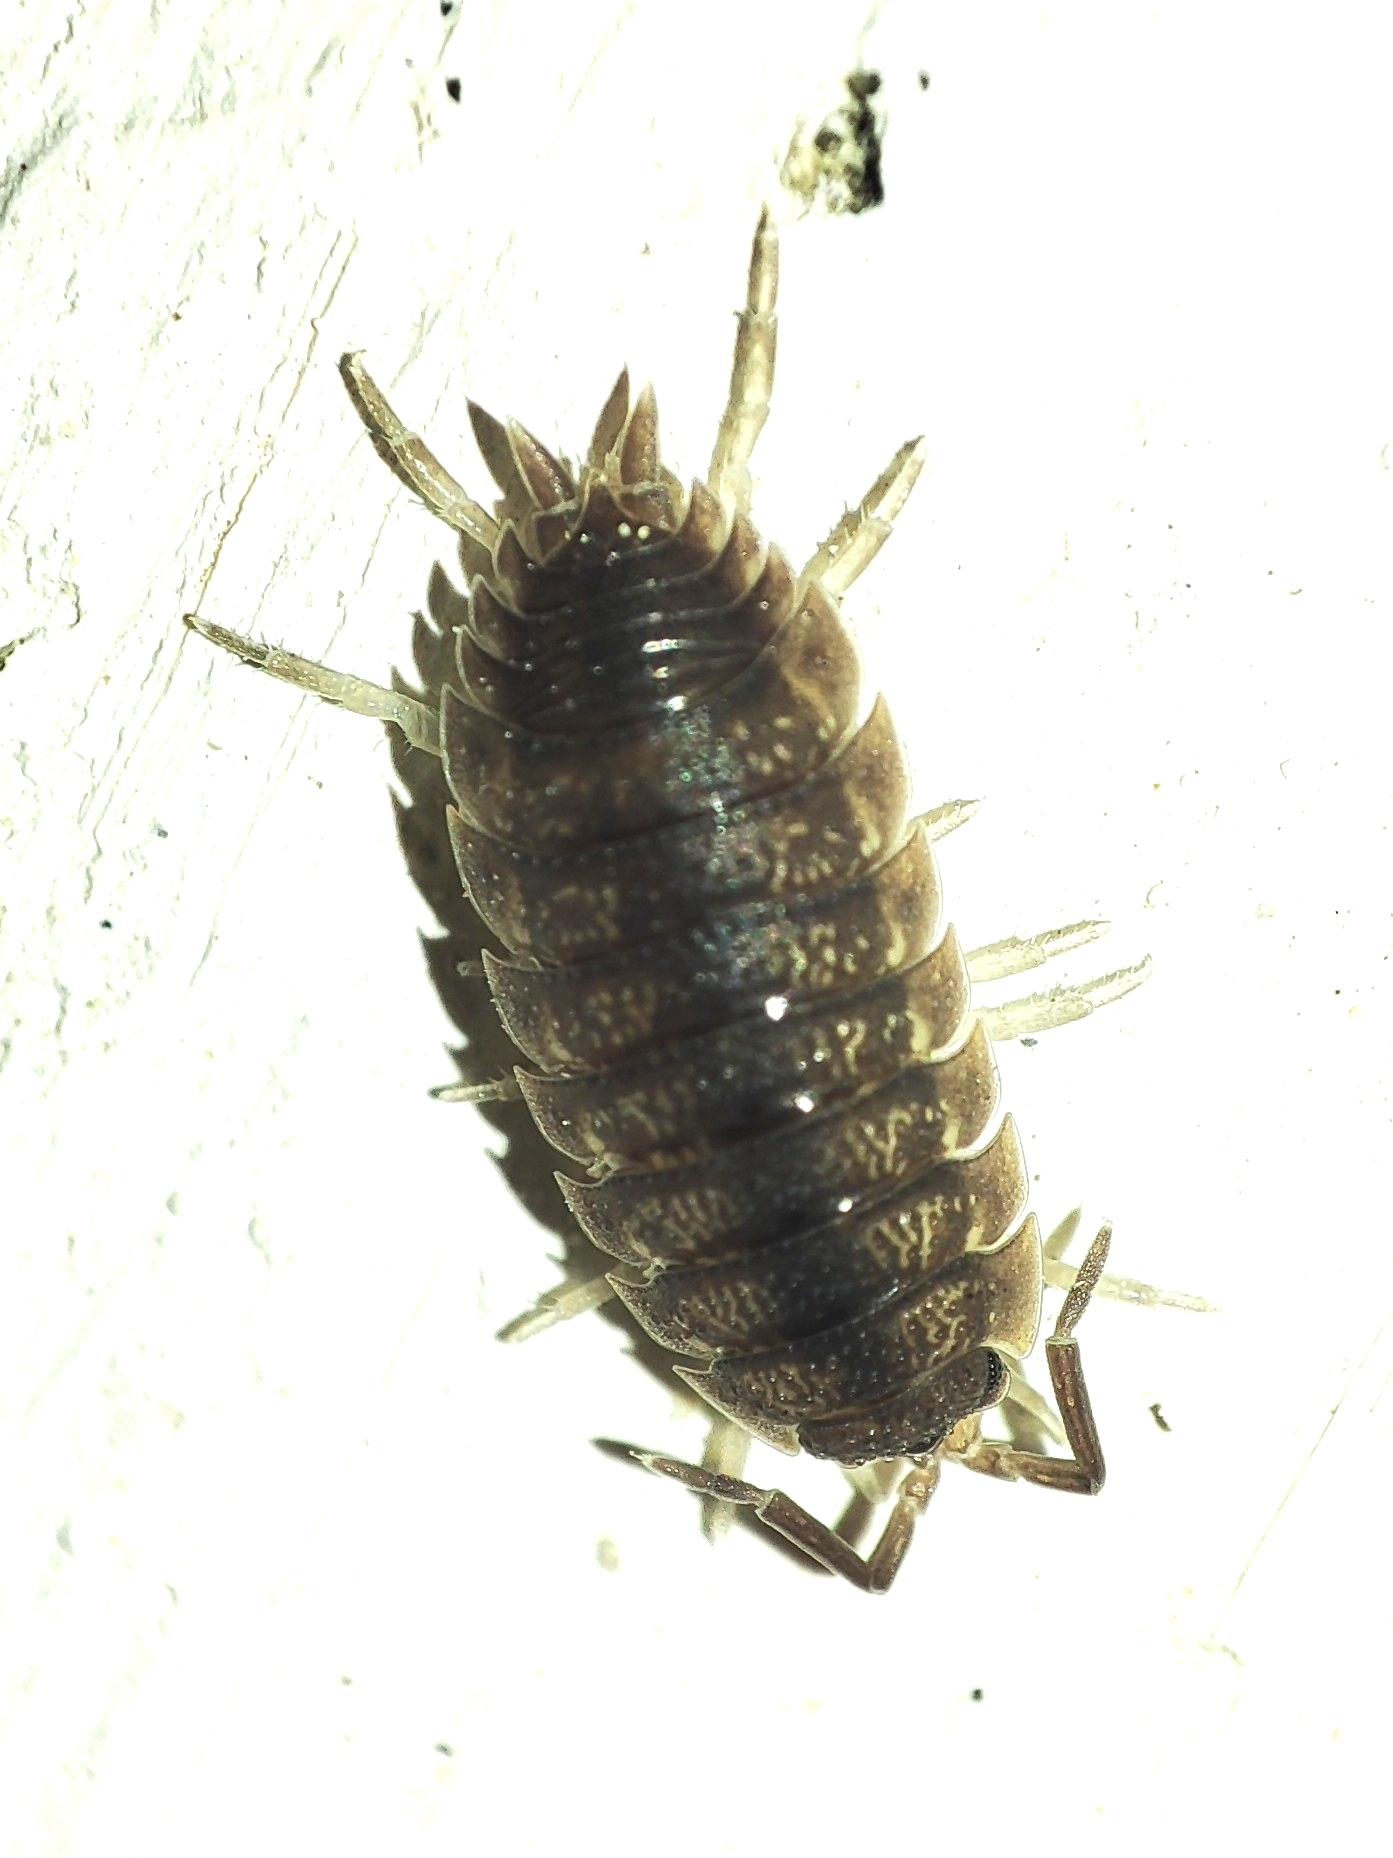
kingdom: Animalia
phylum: Arthropoda
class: Malacostraca
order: Isopoda
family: Porcellionidae
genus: Porcellio
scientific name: Porcellio scaber
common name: Common rough woodlouse
